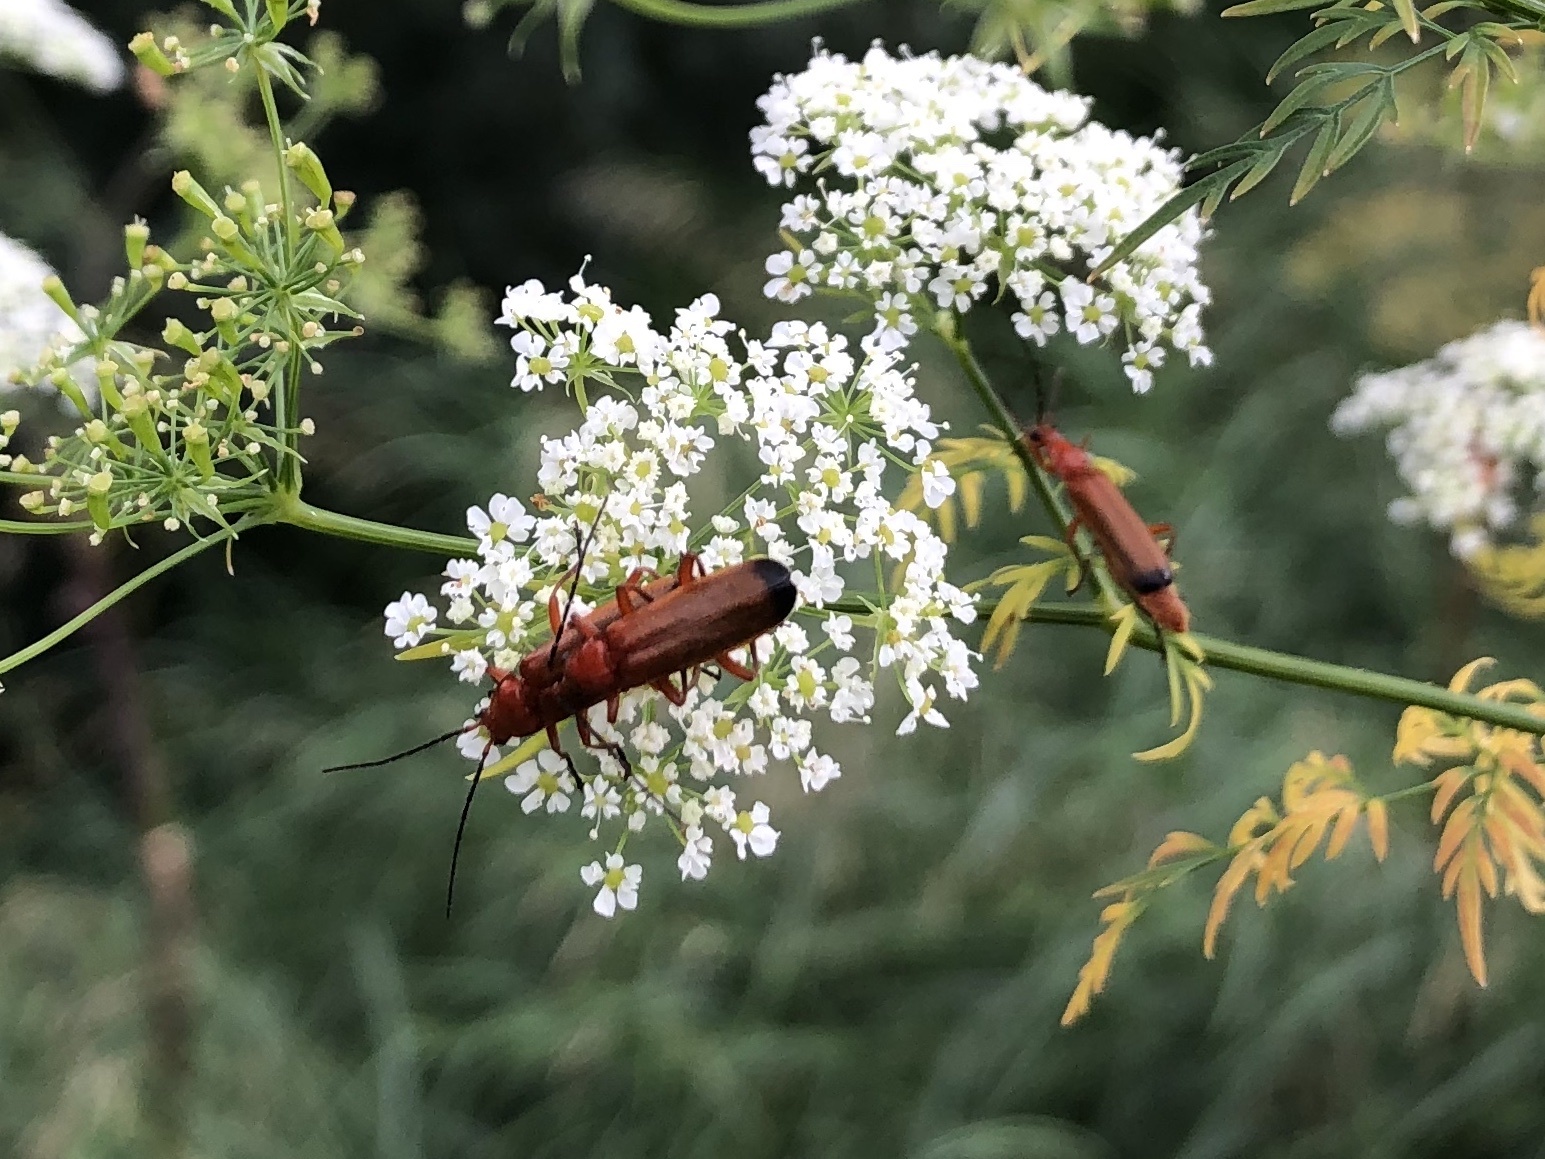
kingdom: Animalia
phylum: Arthropoda
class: Insecta
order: Coleoptera
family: Cantharidae
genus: Rhagonycha
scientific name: Rhagonycha fulva
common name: Common red soldier beetle
